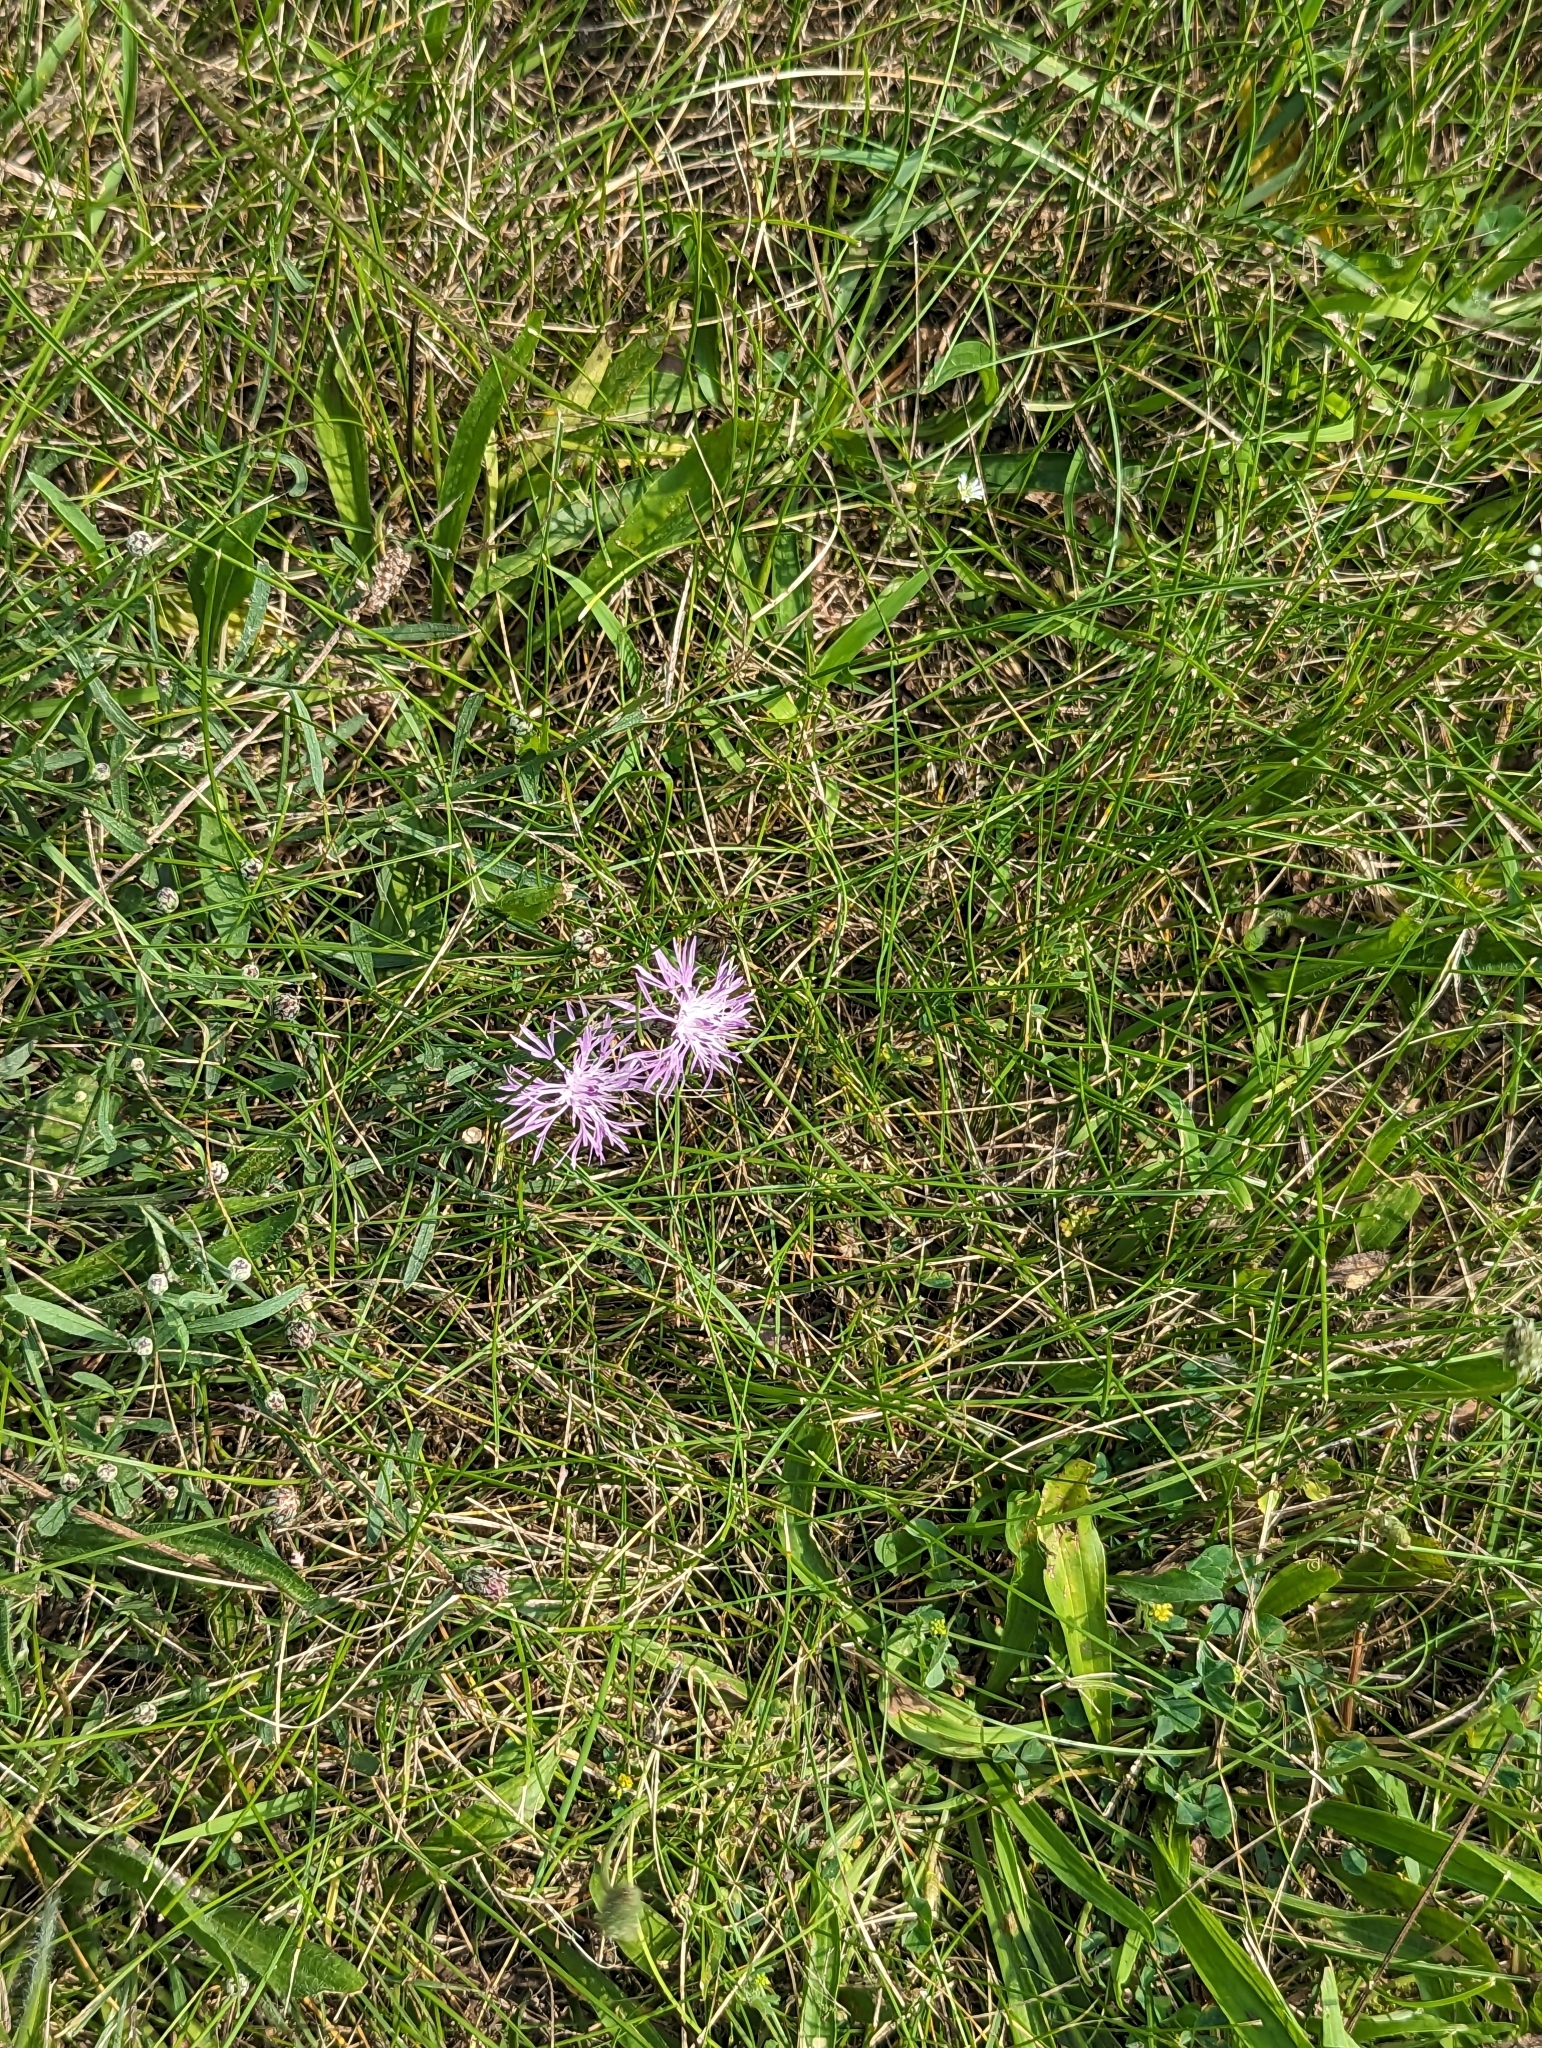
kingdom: Plantae
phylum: Tracheophyta
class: Magnoliopsida
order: Asterales
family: Asteraceae
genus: Centaurea
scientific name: Centaurea stoebe
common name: Spotted knapweed
